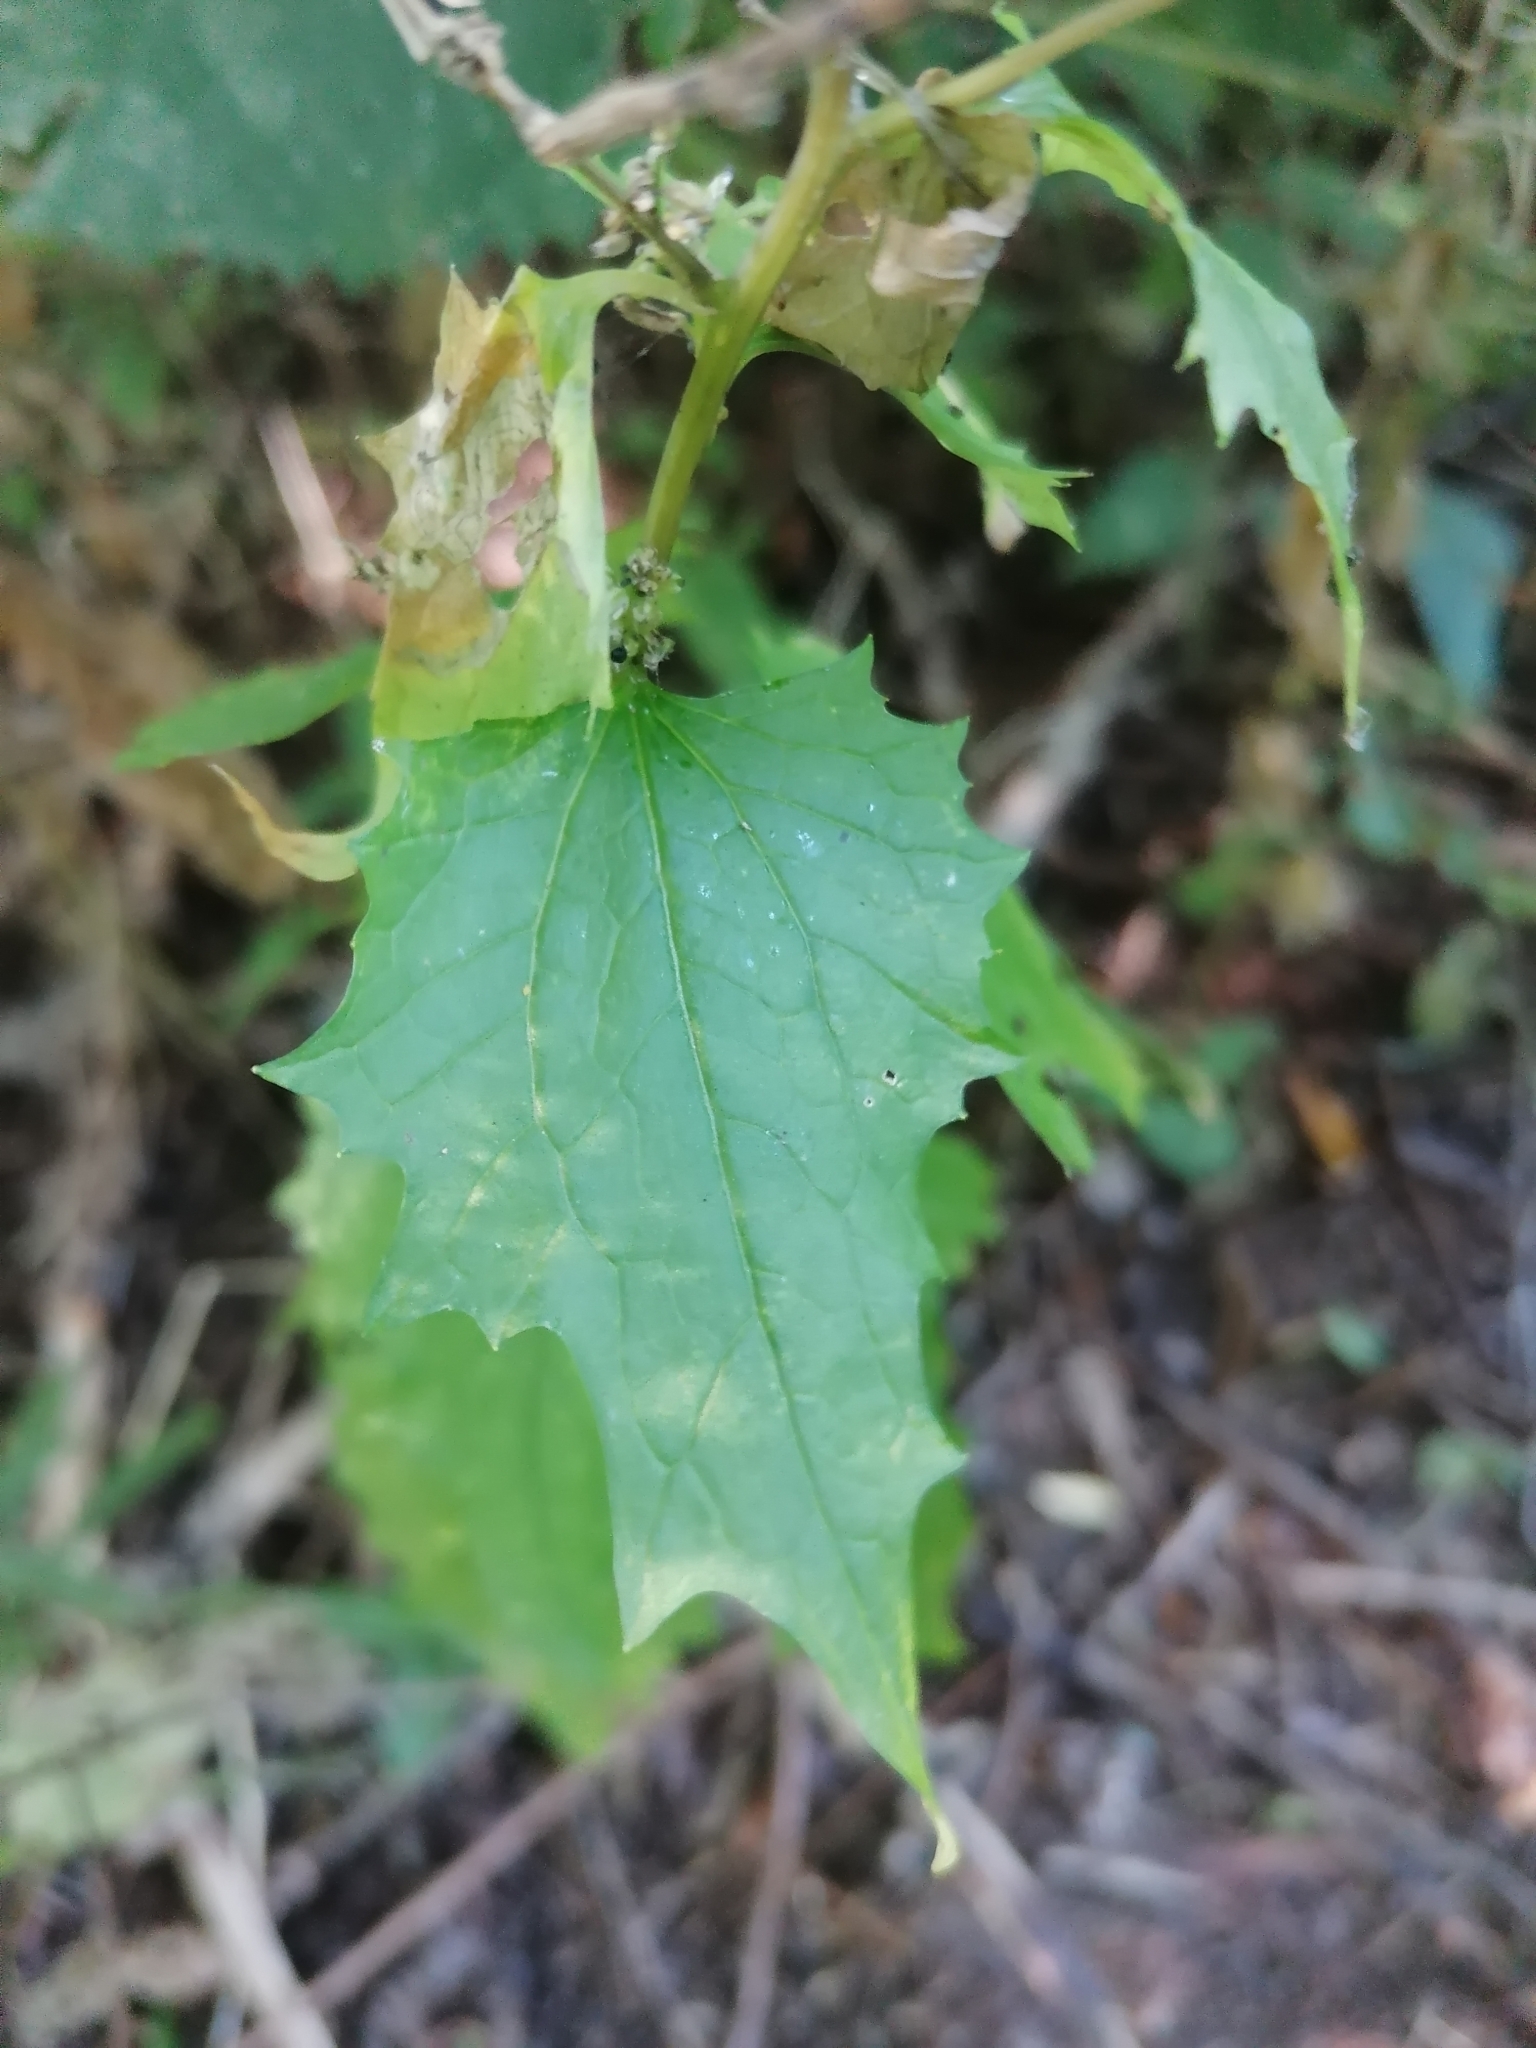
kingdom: Plantae
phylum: Tracheophyta
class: Magnoliopsida
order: Brassicales
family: Brassicaceae
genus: Alliaria
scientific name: Alliaria petiolata
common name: Garlic mustard
